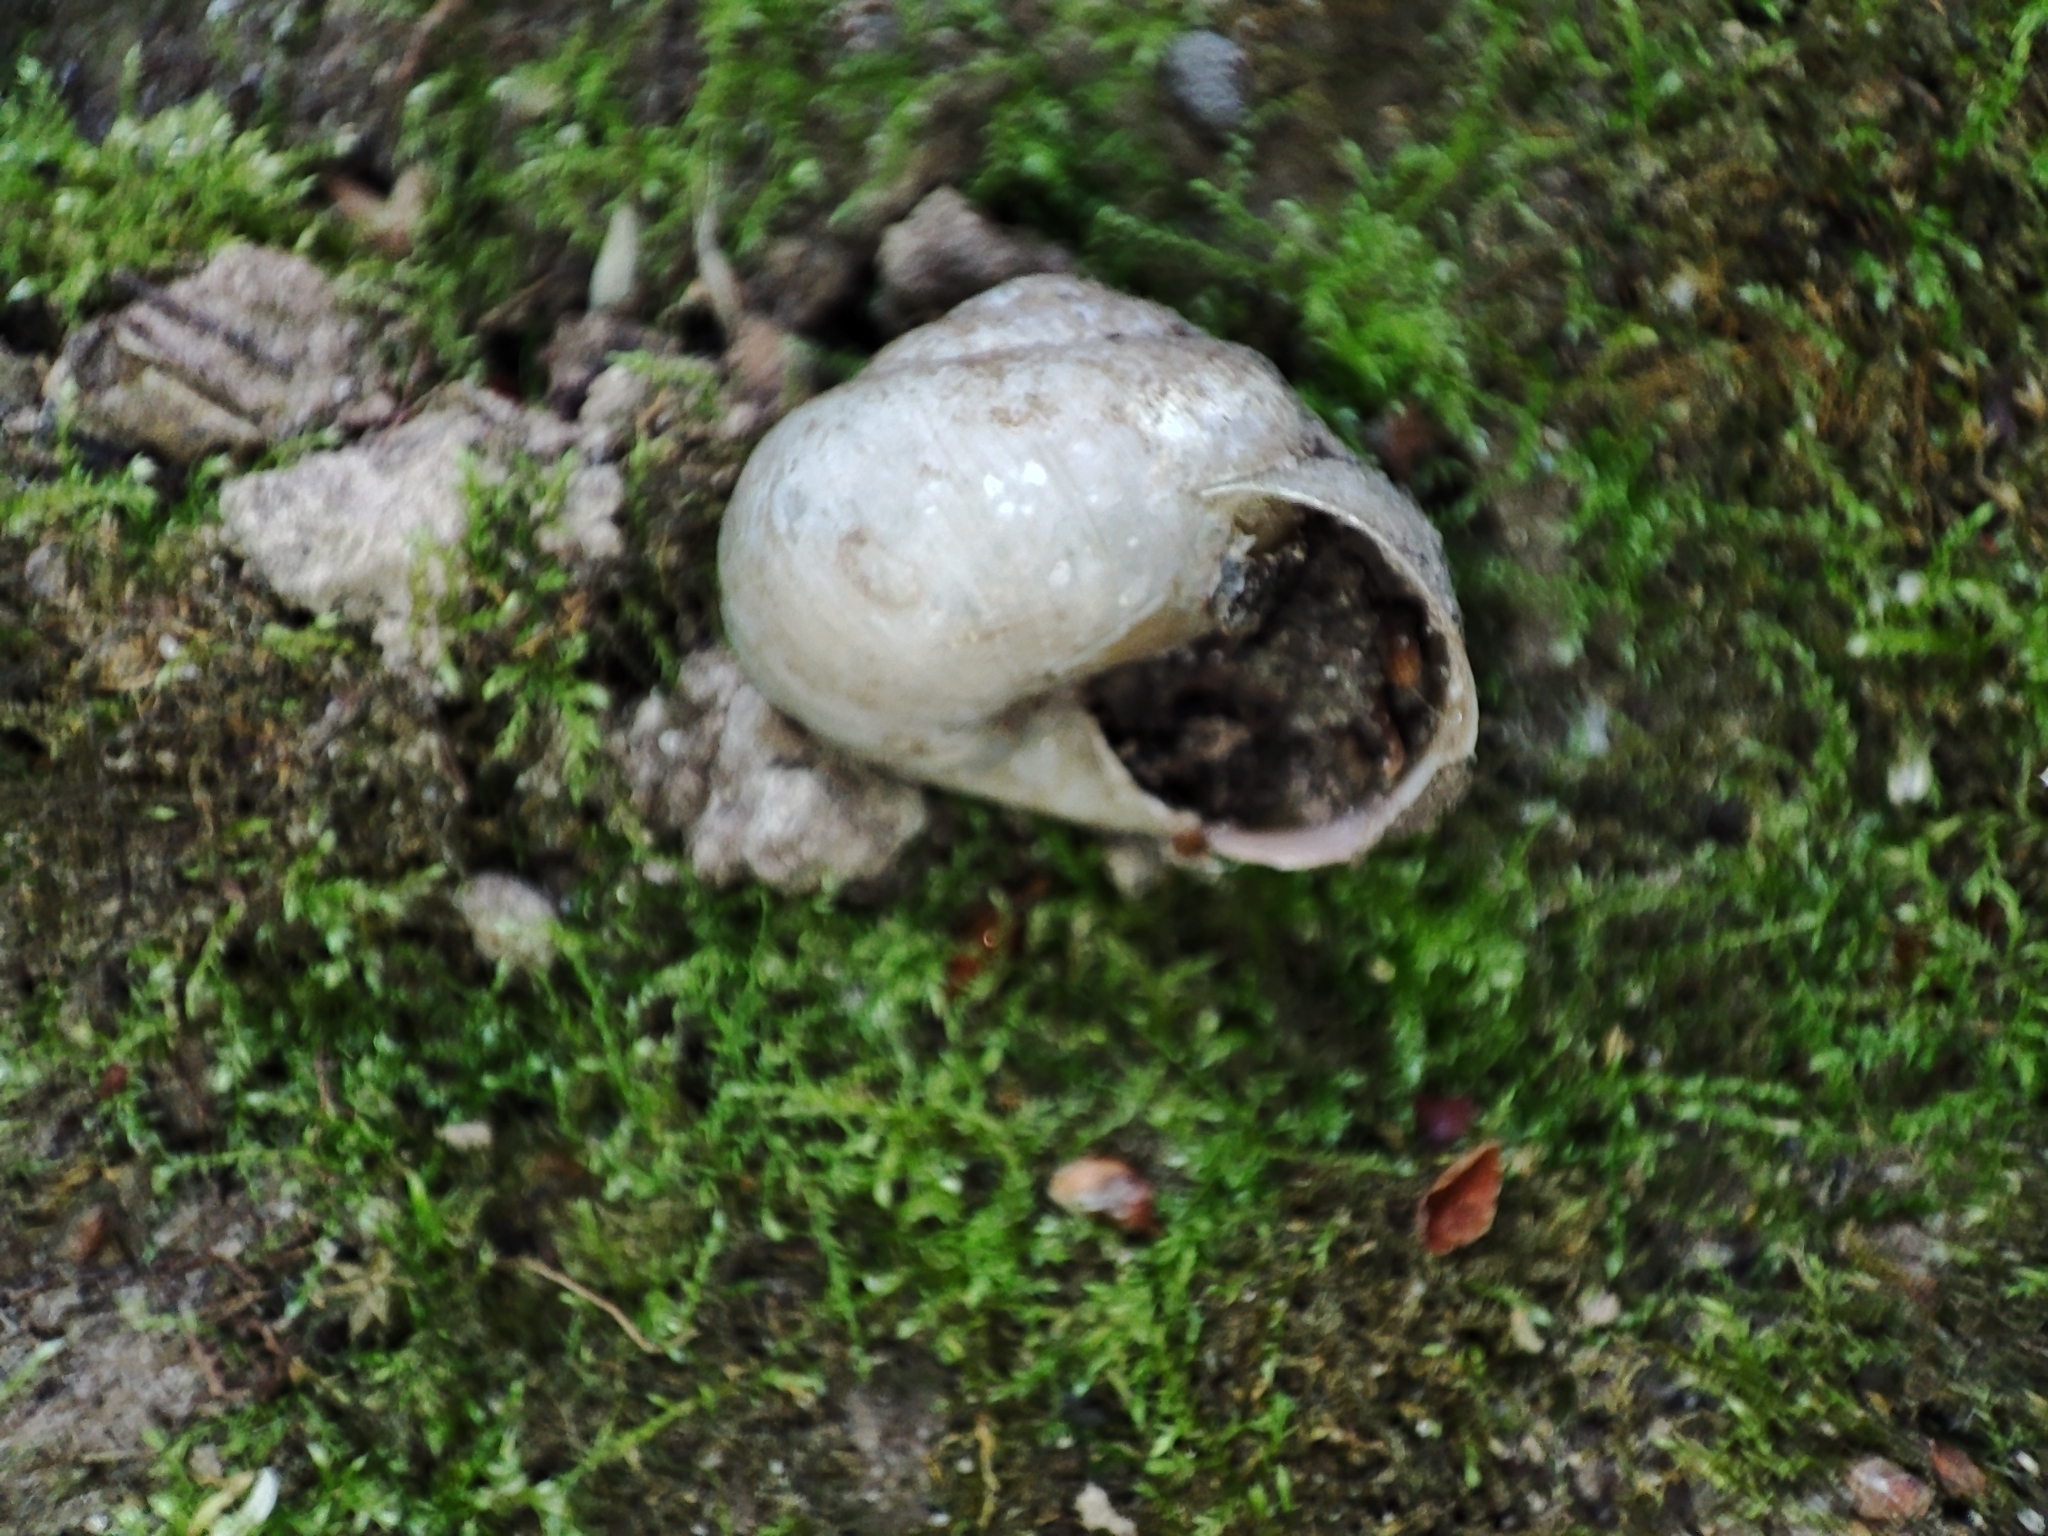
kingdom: Animalia
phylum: Mollusca
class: Gastropoda
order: Stylommatophora
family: Camaenidae
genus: Fruticicola
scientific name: Fruticicola fruticum
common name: Bush snail
